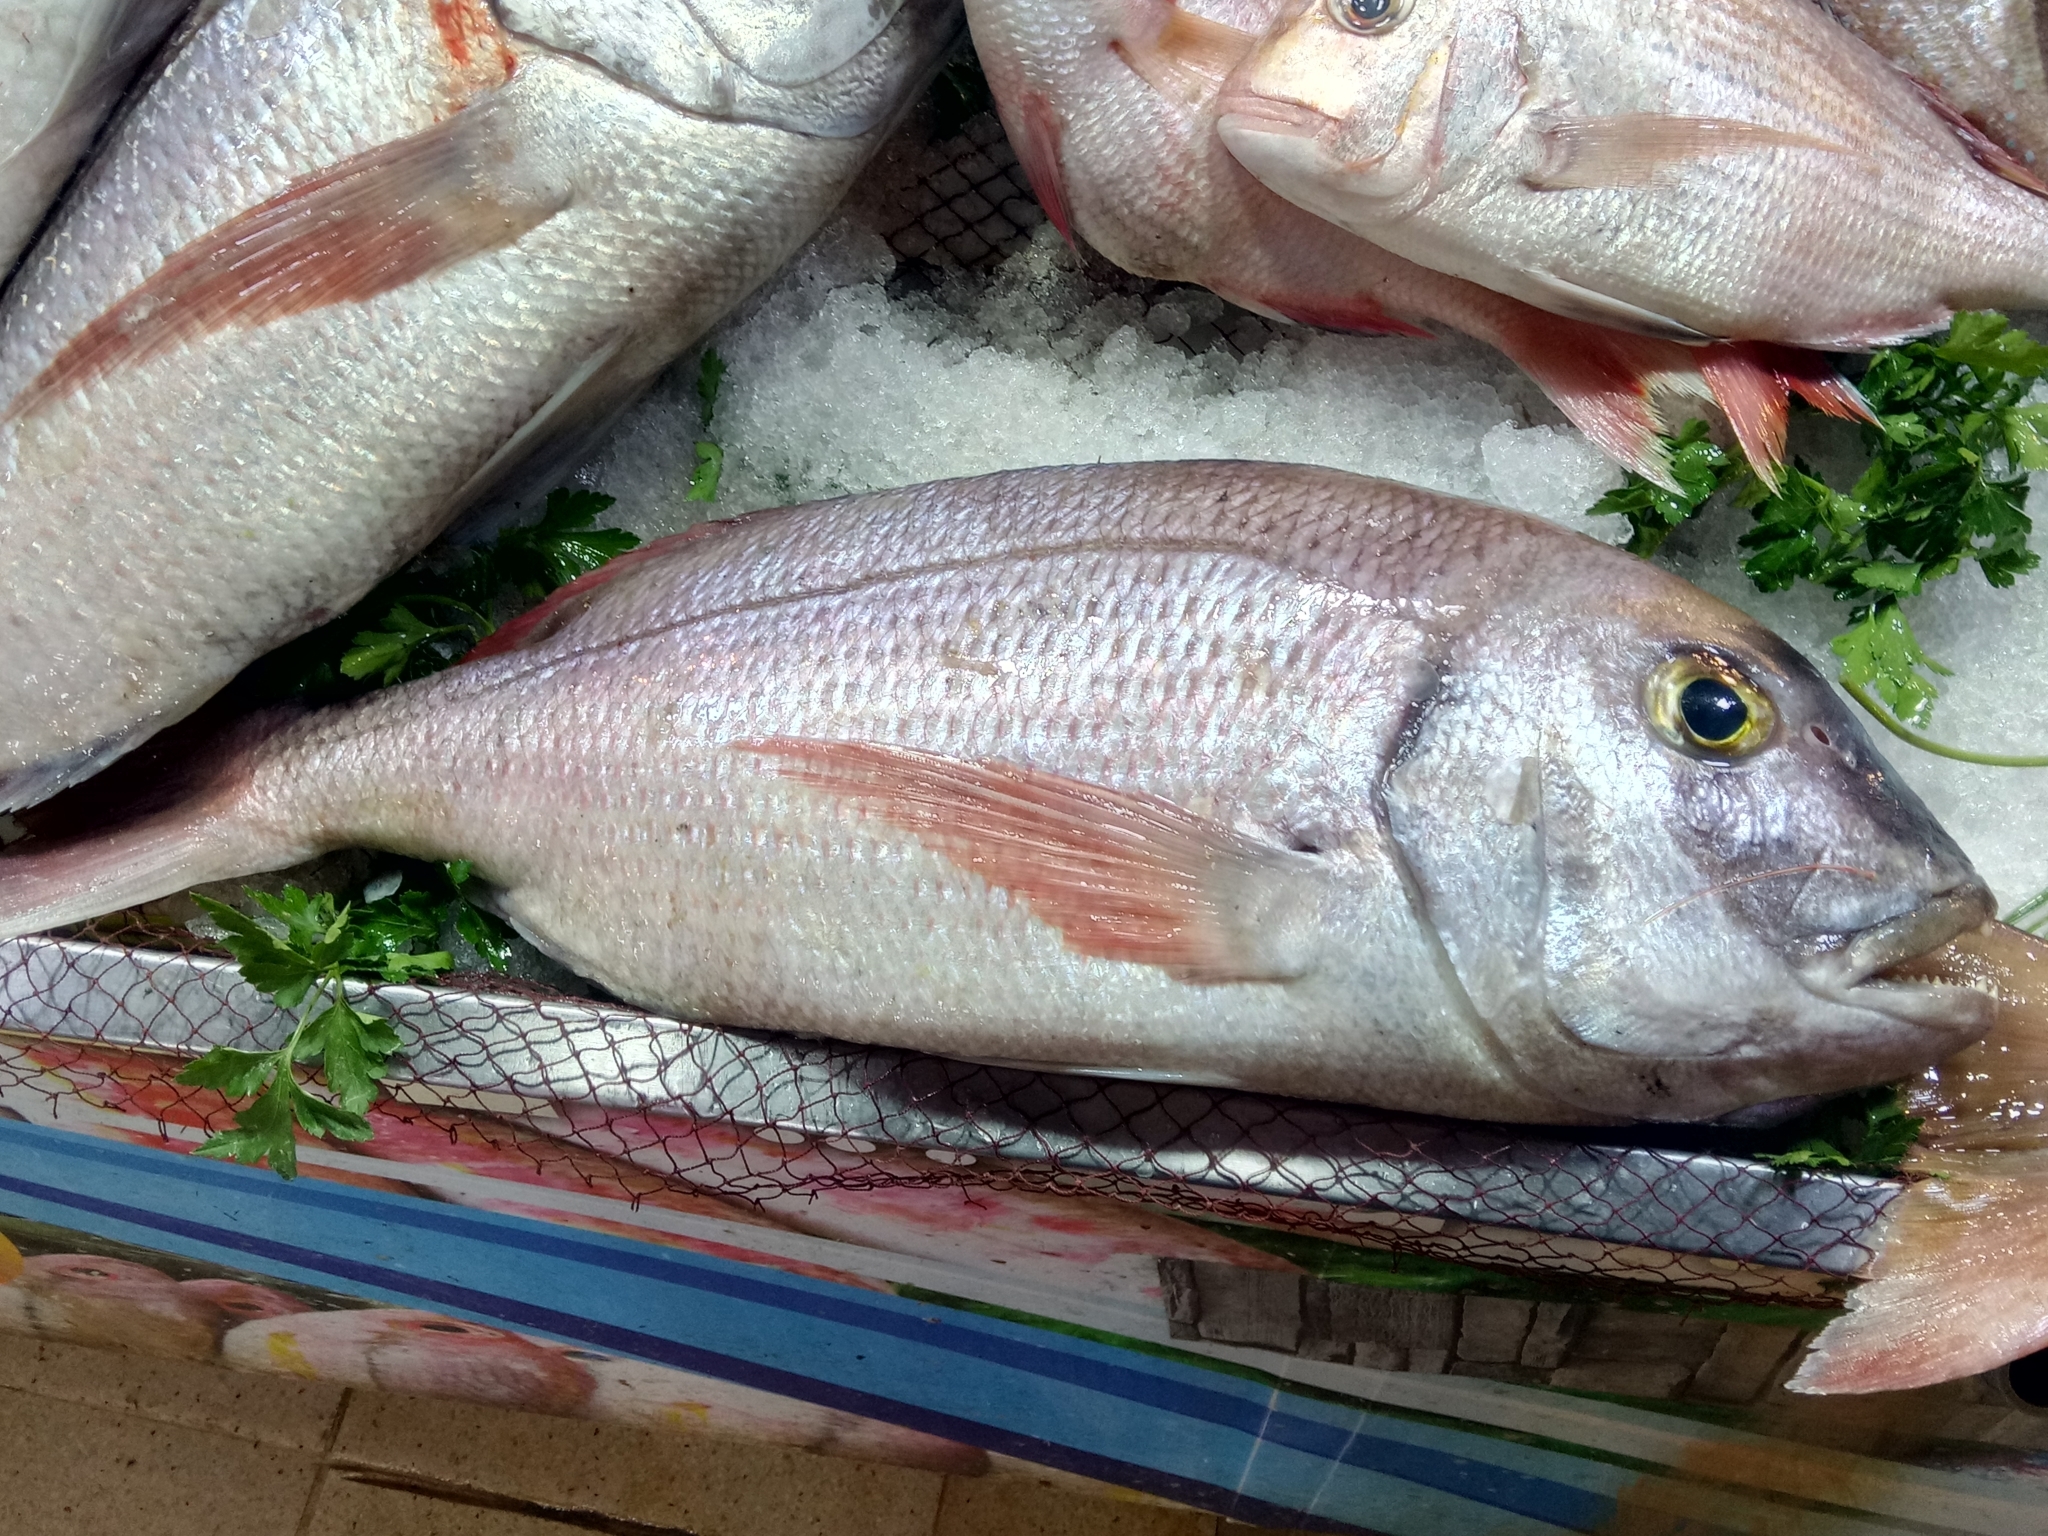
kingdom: Animalia
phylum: Chordata
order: Perciformes
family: Sparidae
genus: Dentex
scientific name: Dentex gibbosus
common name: Pink dentex
